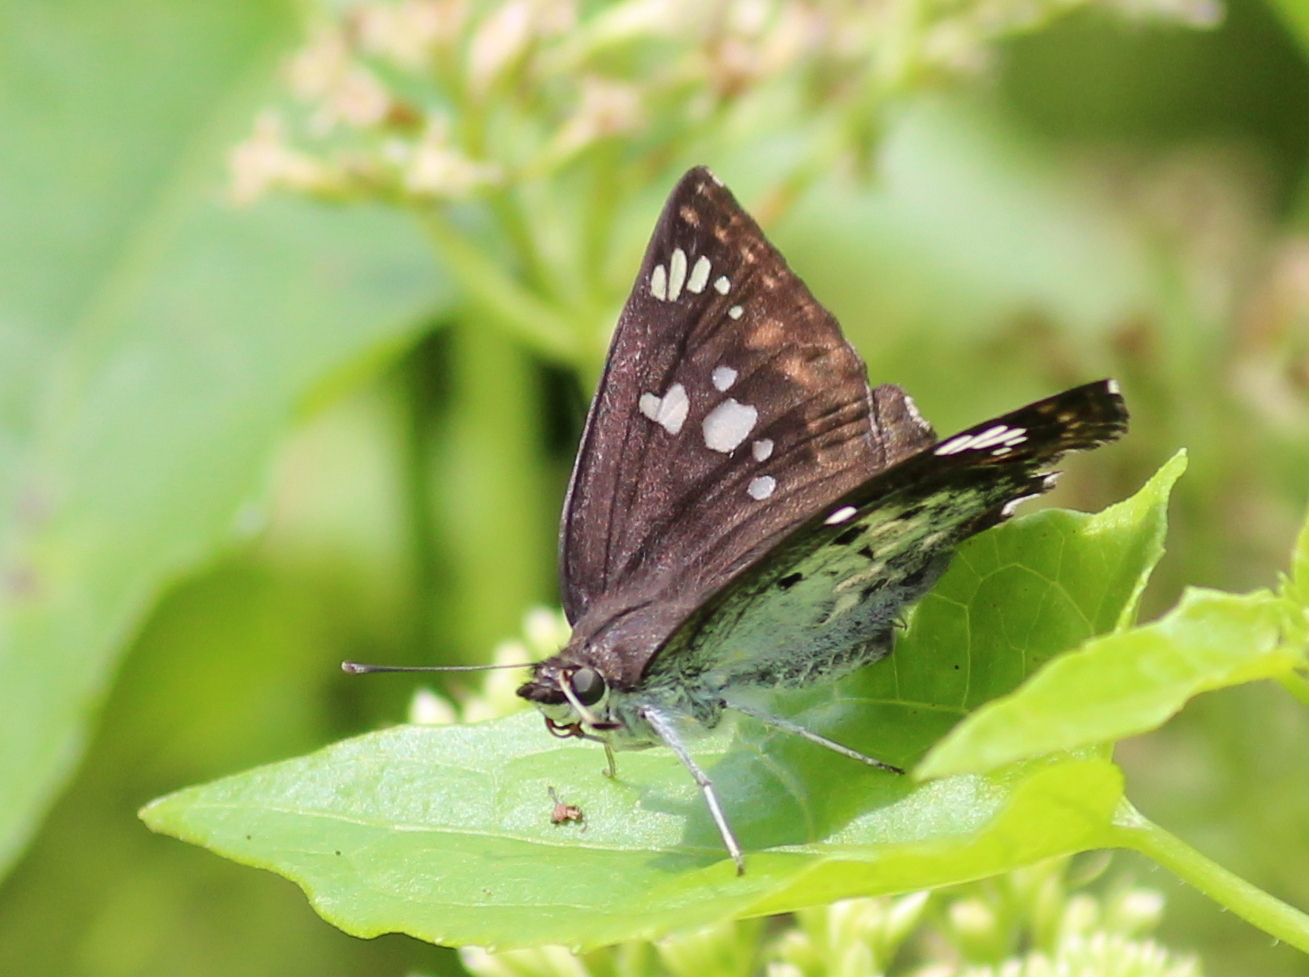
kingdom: Animalia
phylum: Arthropoda
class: Insecta
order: Lepidoptera
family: Hesperiidae
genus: Caprona
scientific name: Caprona ransonnettii
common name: Golden angle
